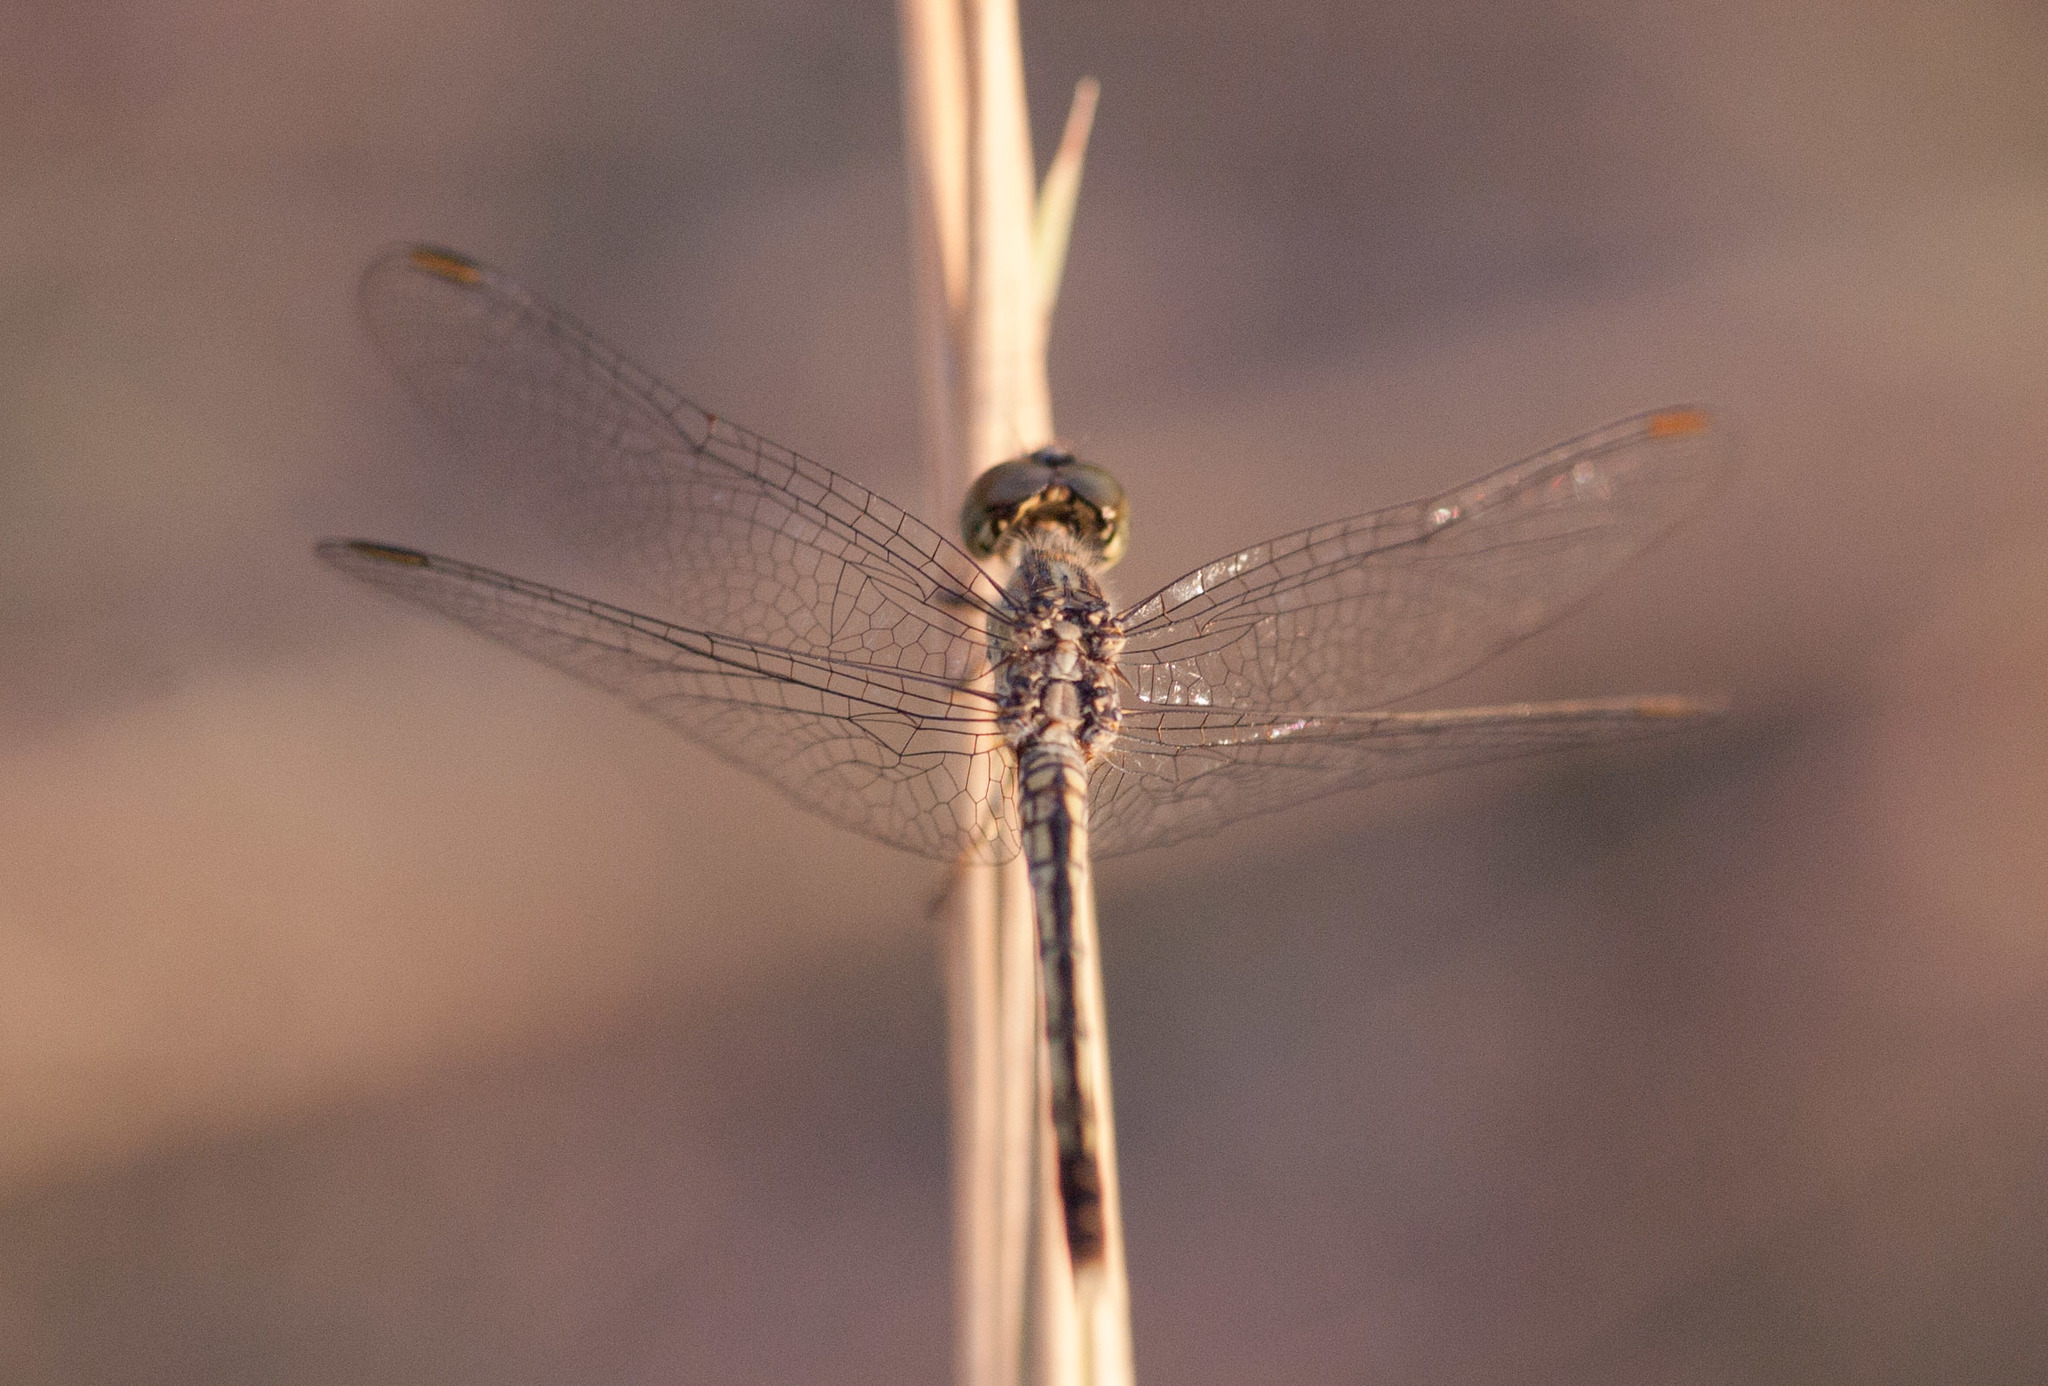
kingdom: Animalia
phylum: Arthropoda
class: Insecta
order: Odonata
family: Libellulidae
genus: Diplacodes
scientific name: Diplacodes trivialis
